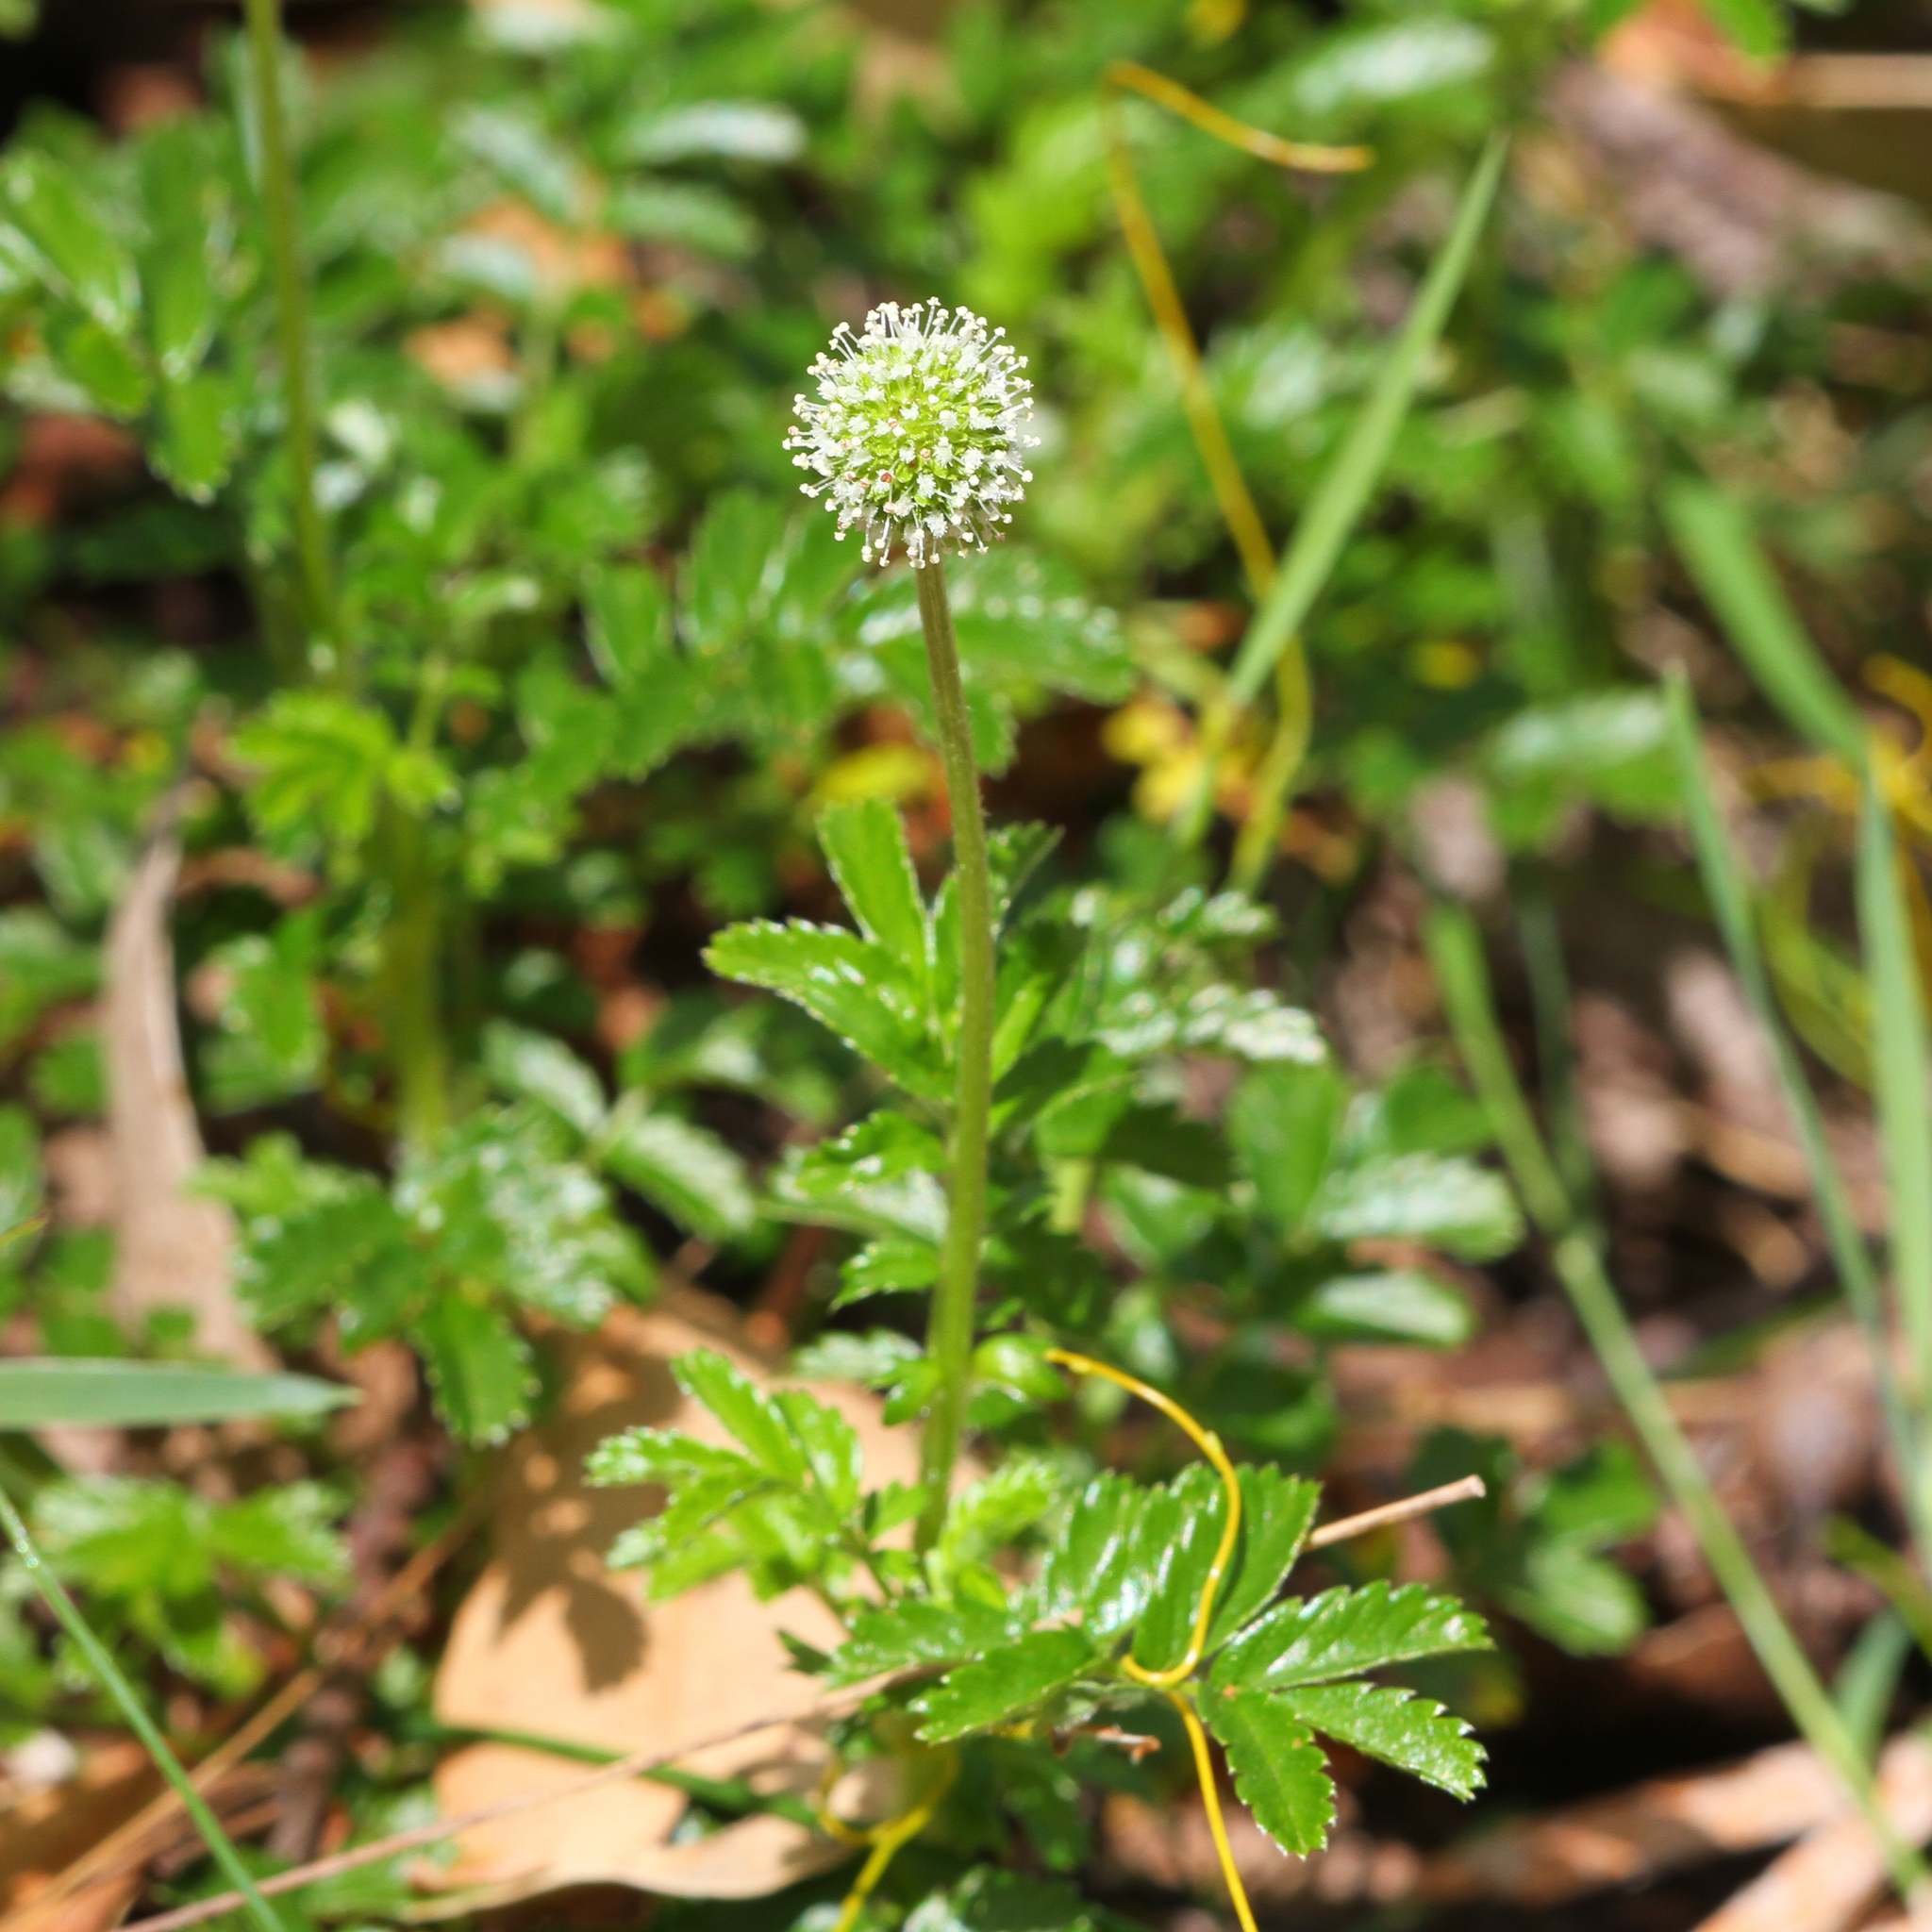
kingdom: Plantae
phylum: Tracheophyta
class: Magnoliopsida
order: Rosales
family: Rosaceae
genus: Acaena
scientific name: Acaena novae-zelandiae
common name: Pirri-pirri-bur
